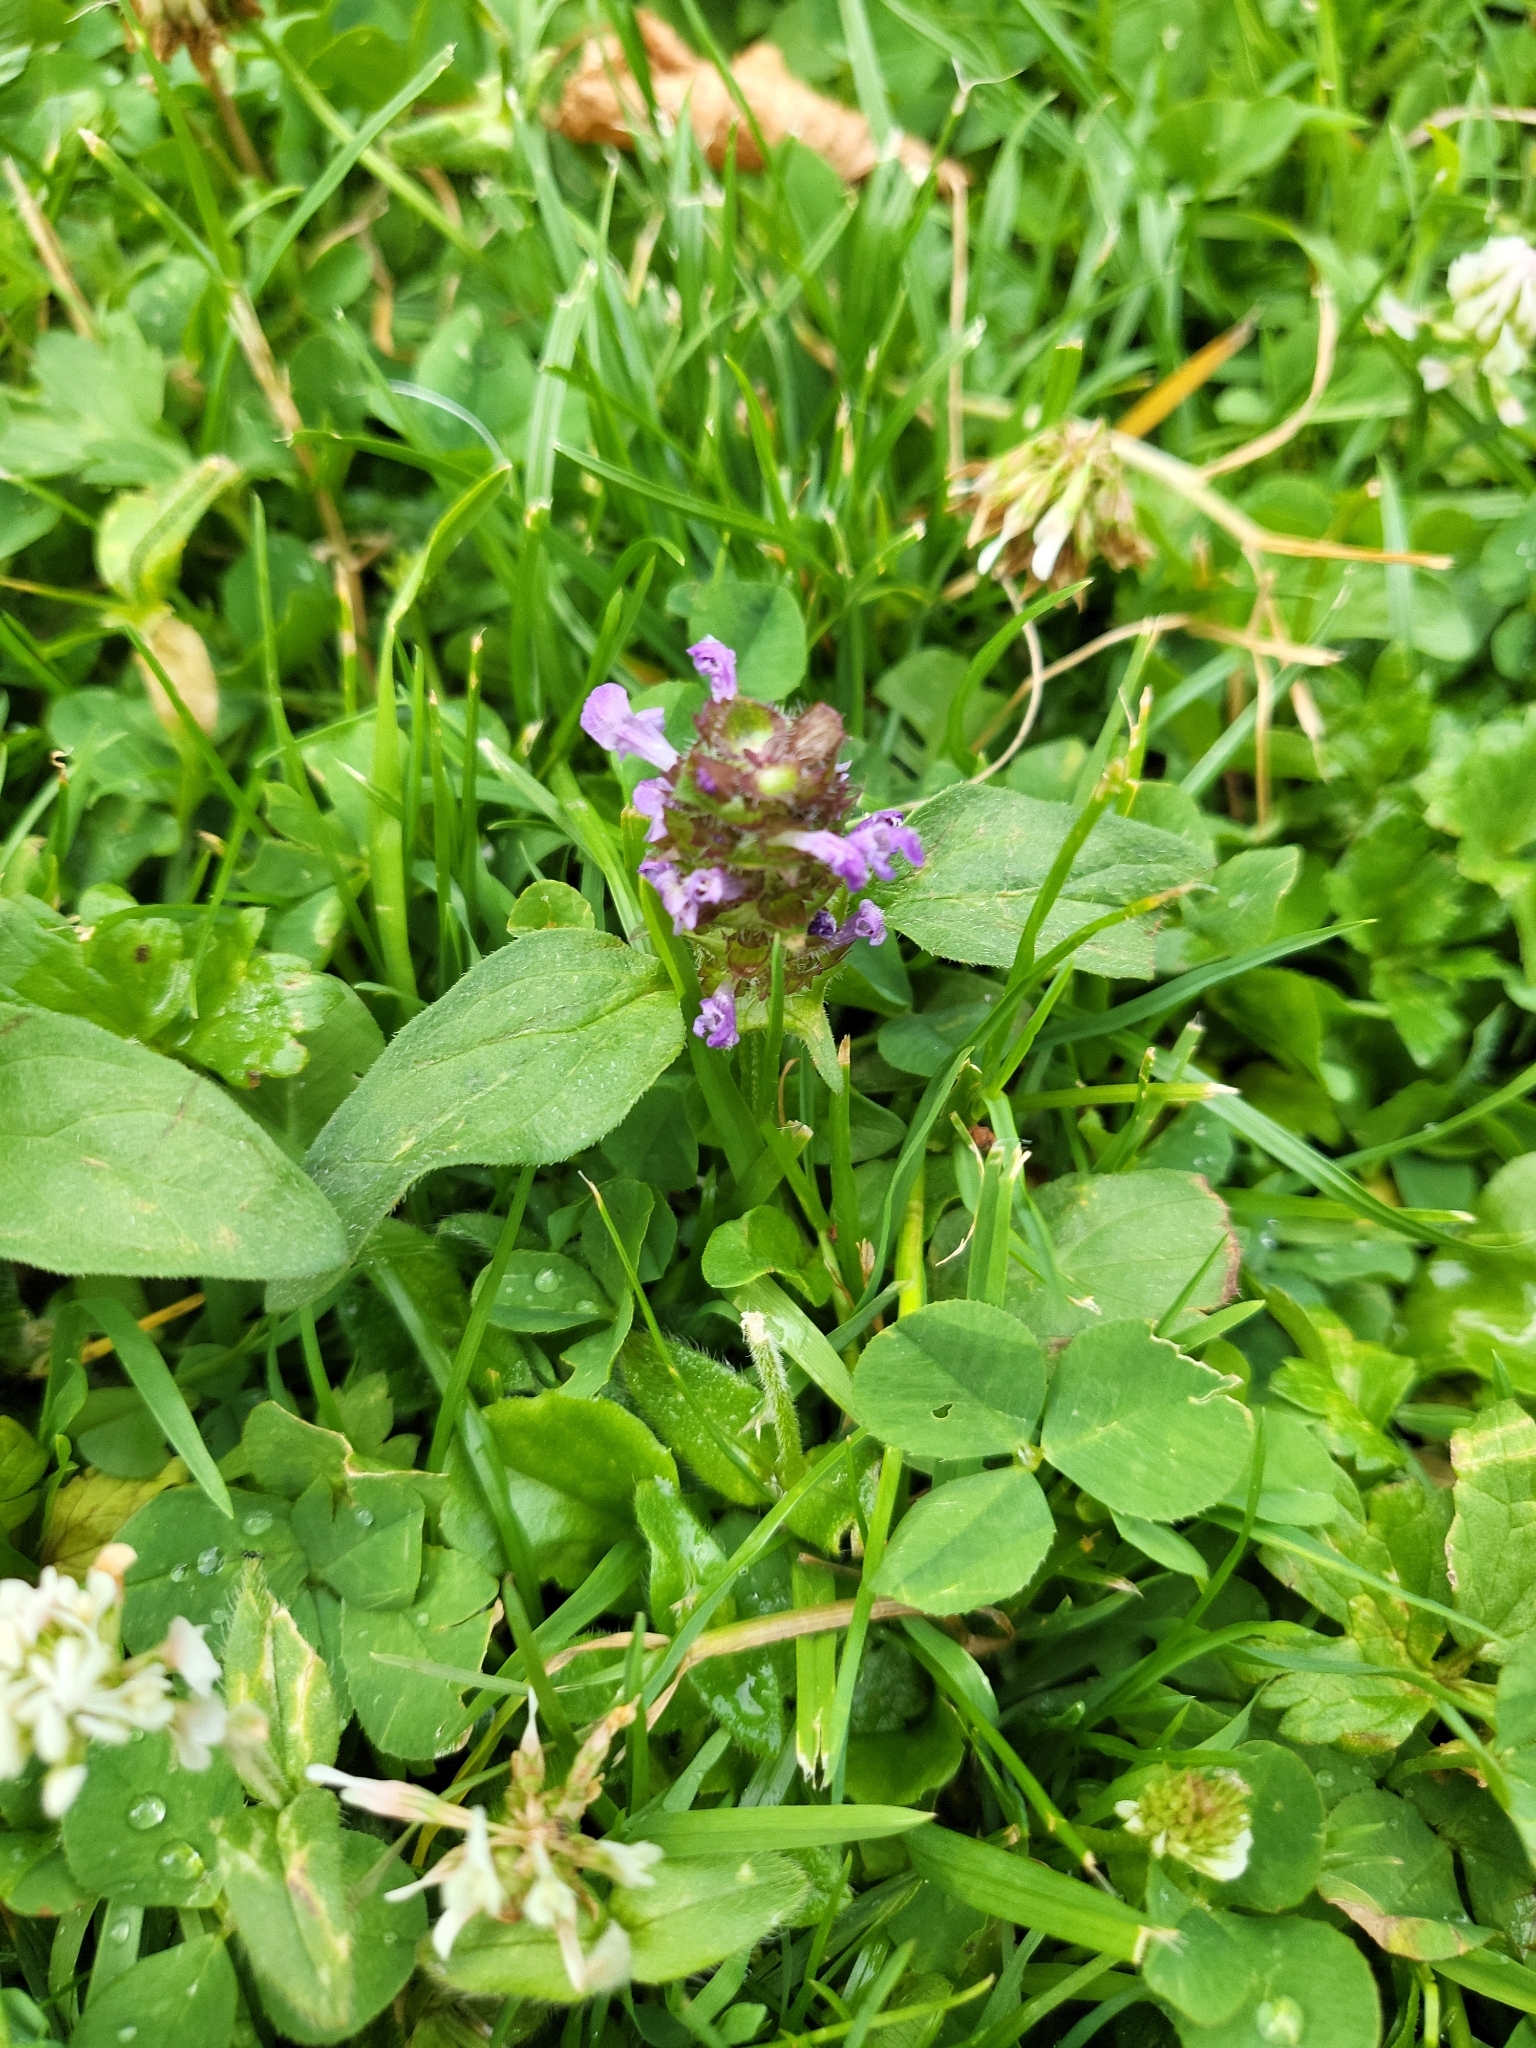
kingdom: Plantae
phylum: Tracheophyta
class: Magnoliopsida
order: Lamiales
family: Lamiaceae
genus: Prunella
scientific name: Prunella vulgaris
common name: Heal-all
